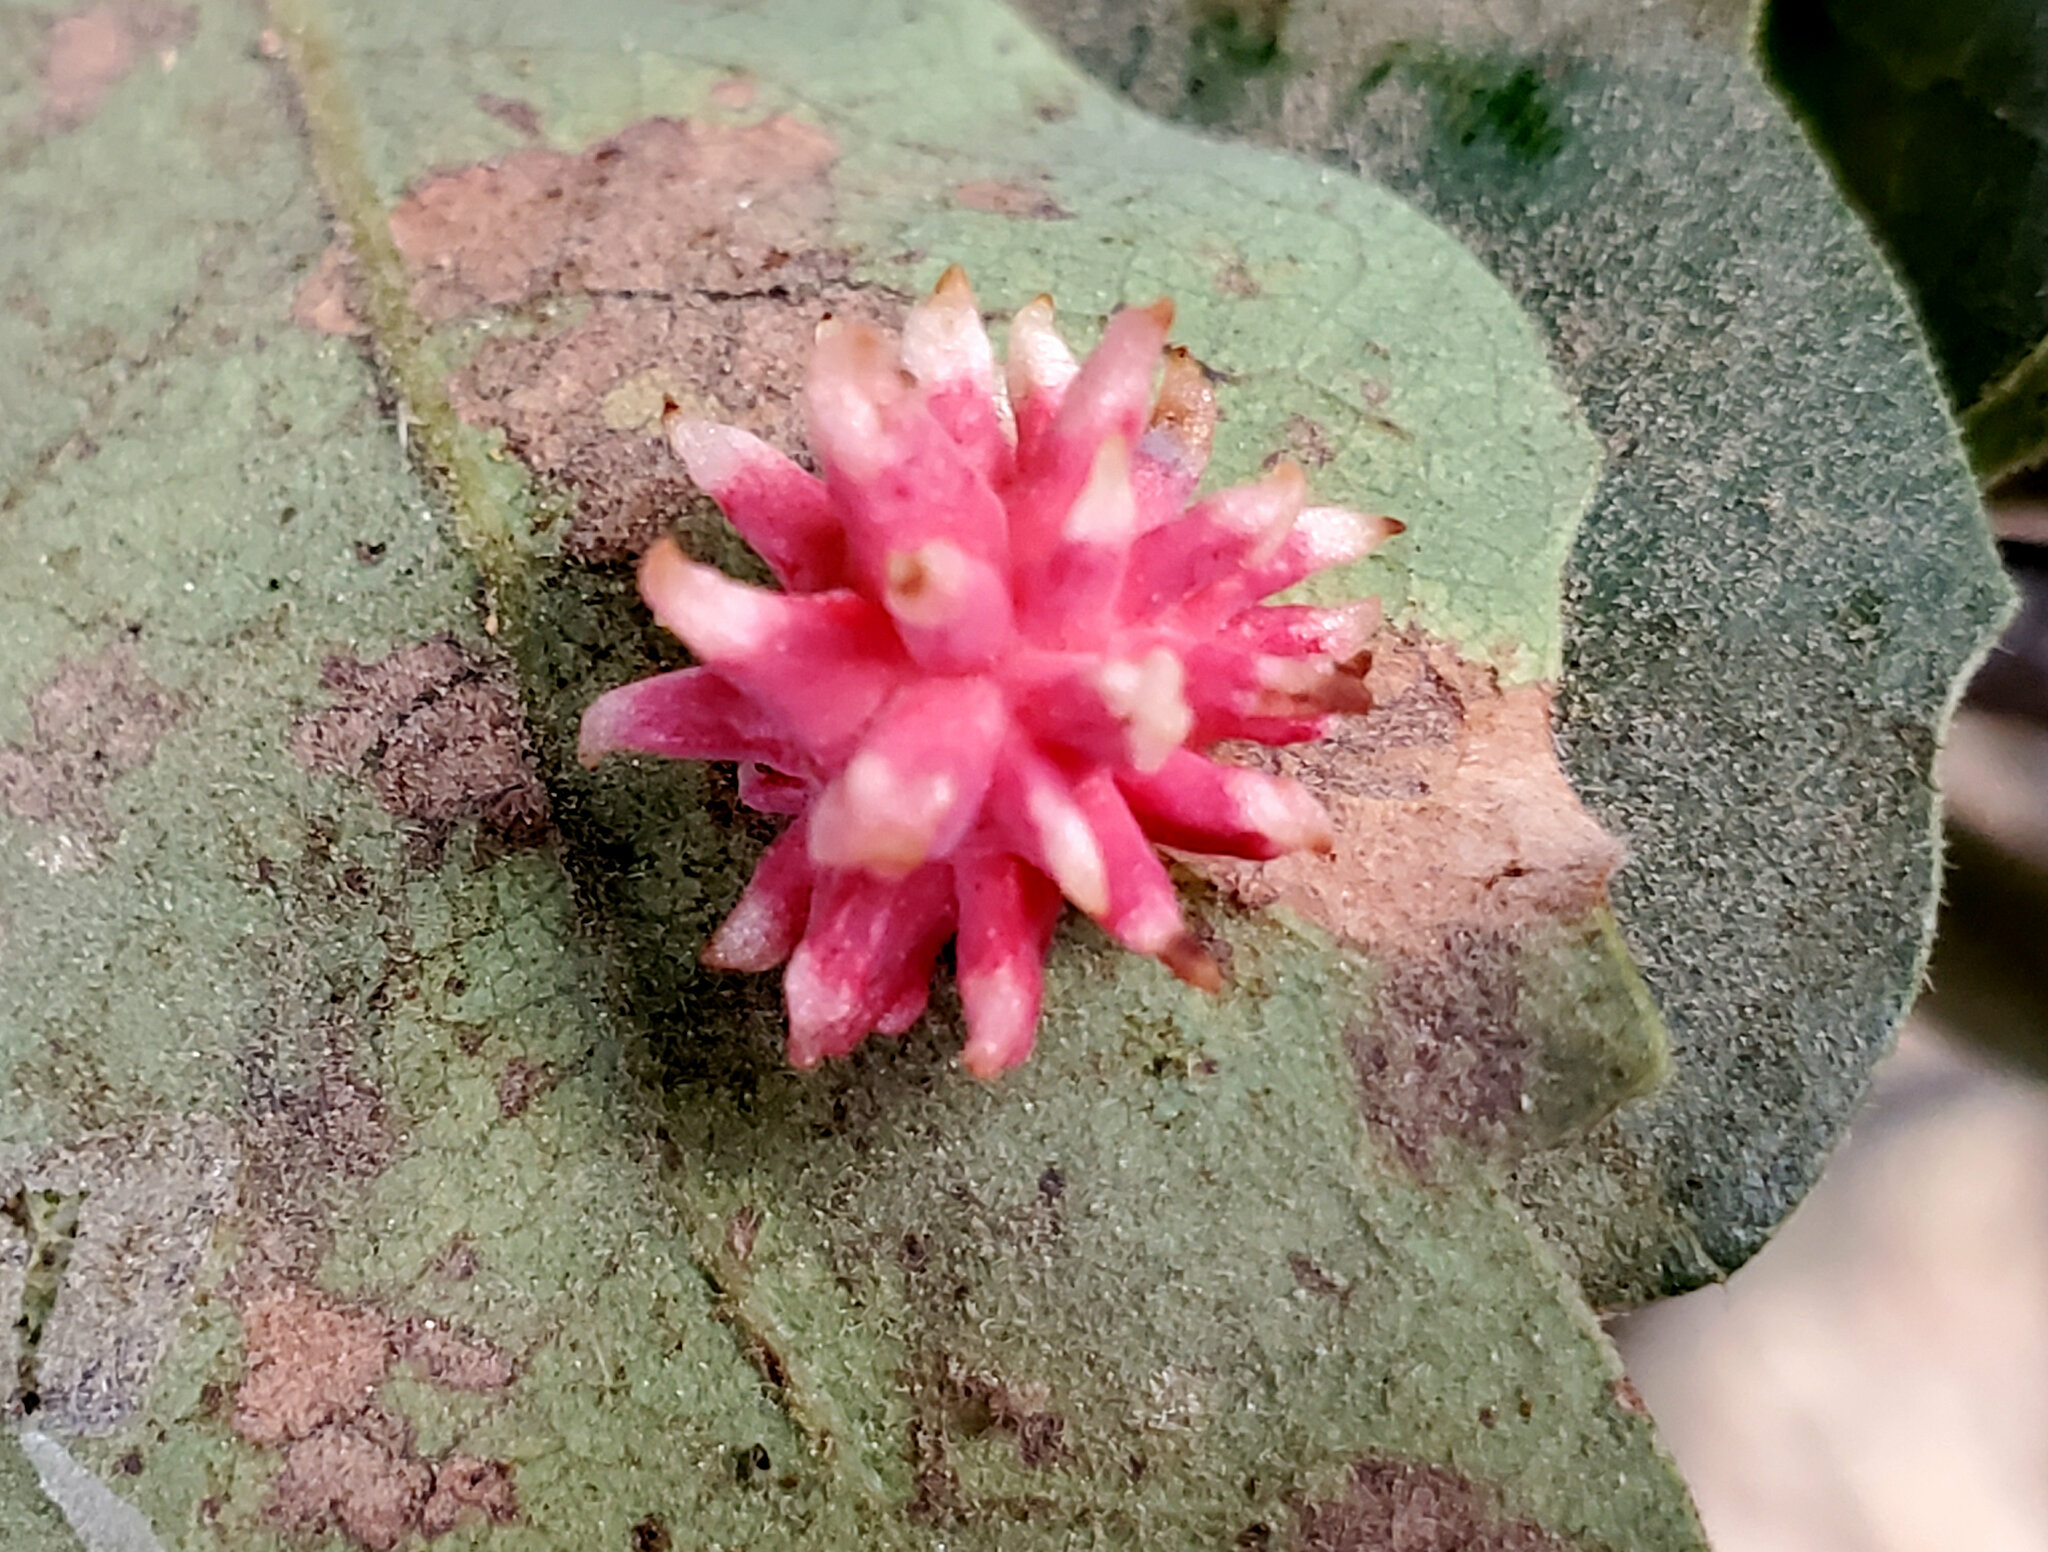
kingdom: Animalia
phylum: Arthropoda
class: Insecta
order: Hymenoptera
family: Cynipidae
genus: Cynips
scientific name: Cynips
